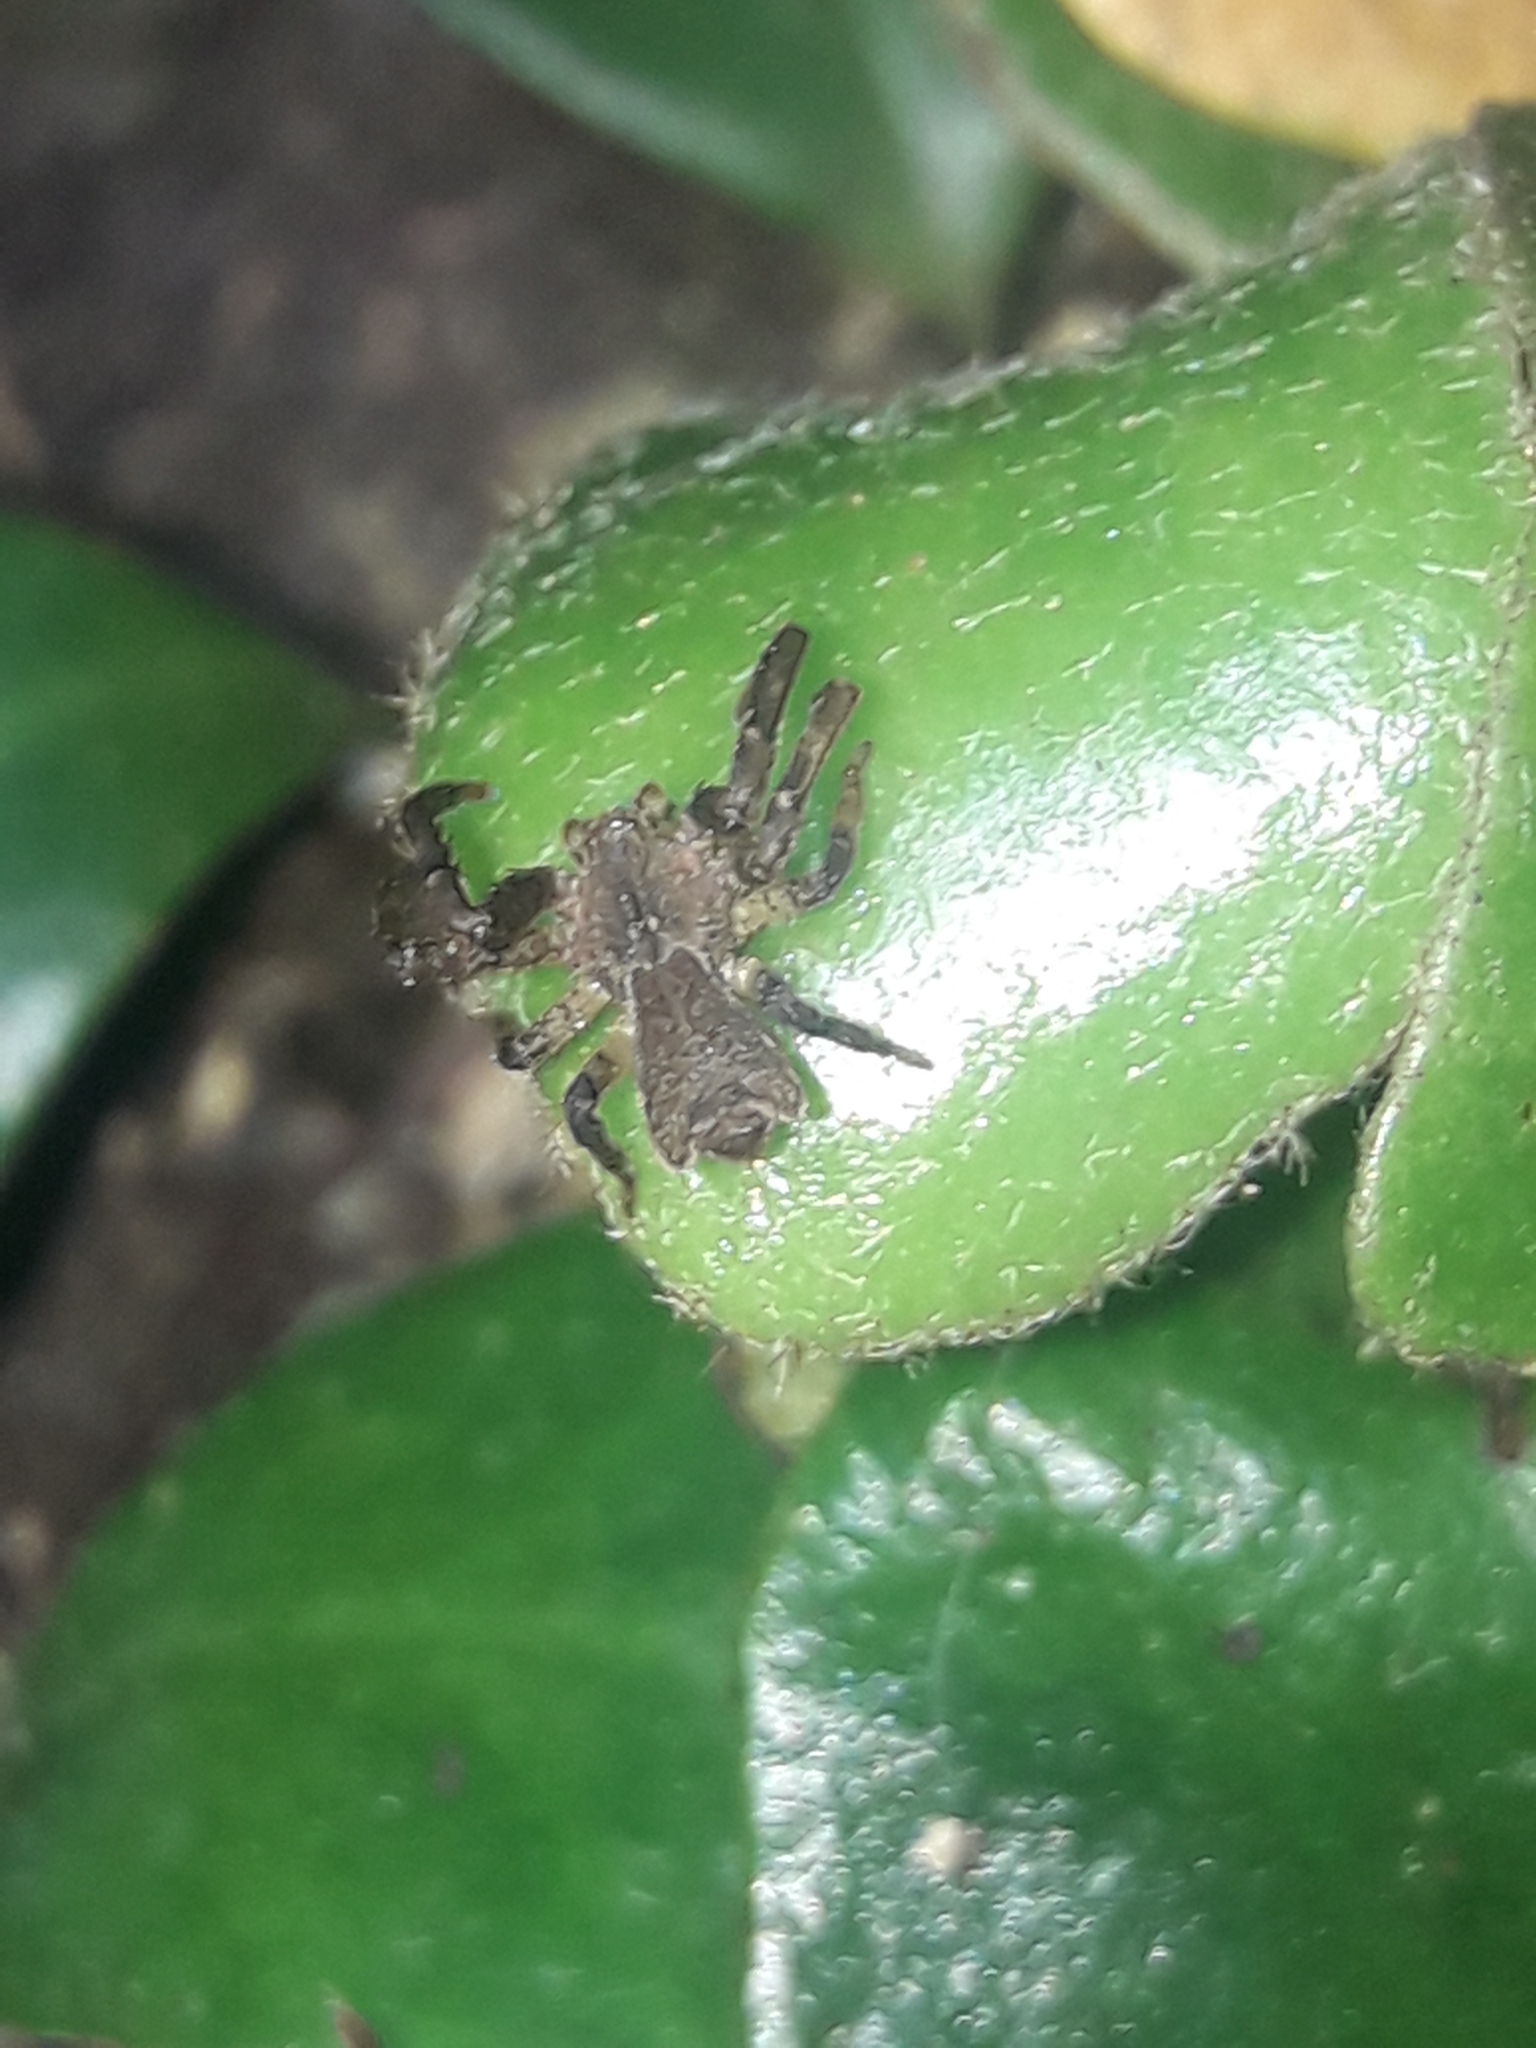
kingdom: Animalia
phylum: Arthropoda
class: Arachnida
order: Araneae
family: Thomisidae
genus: Sidymella
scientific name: Sidymella angularis
